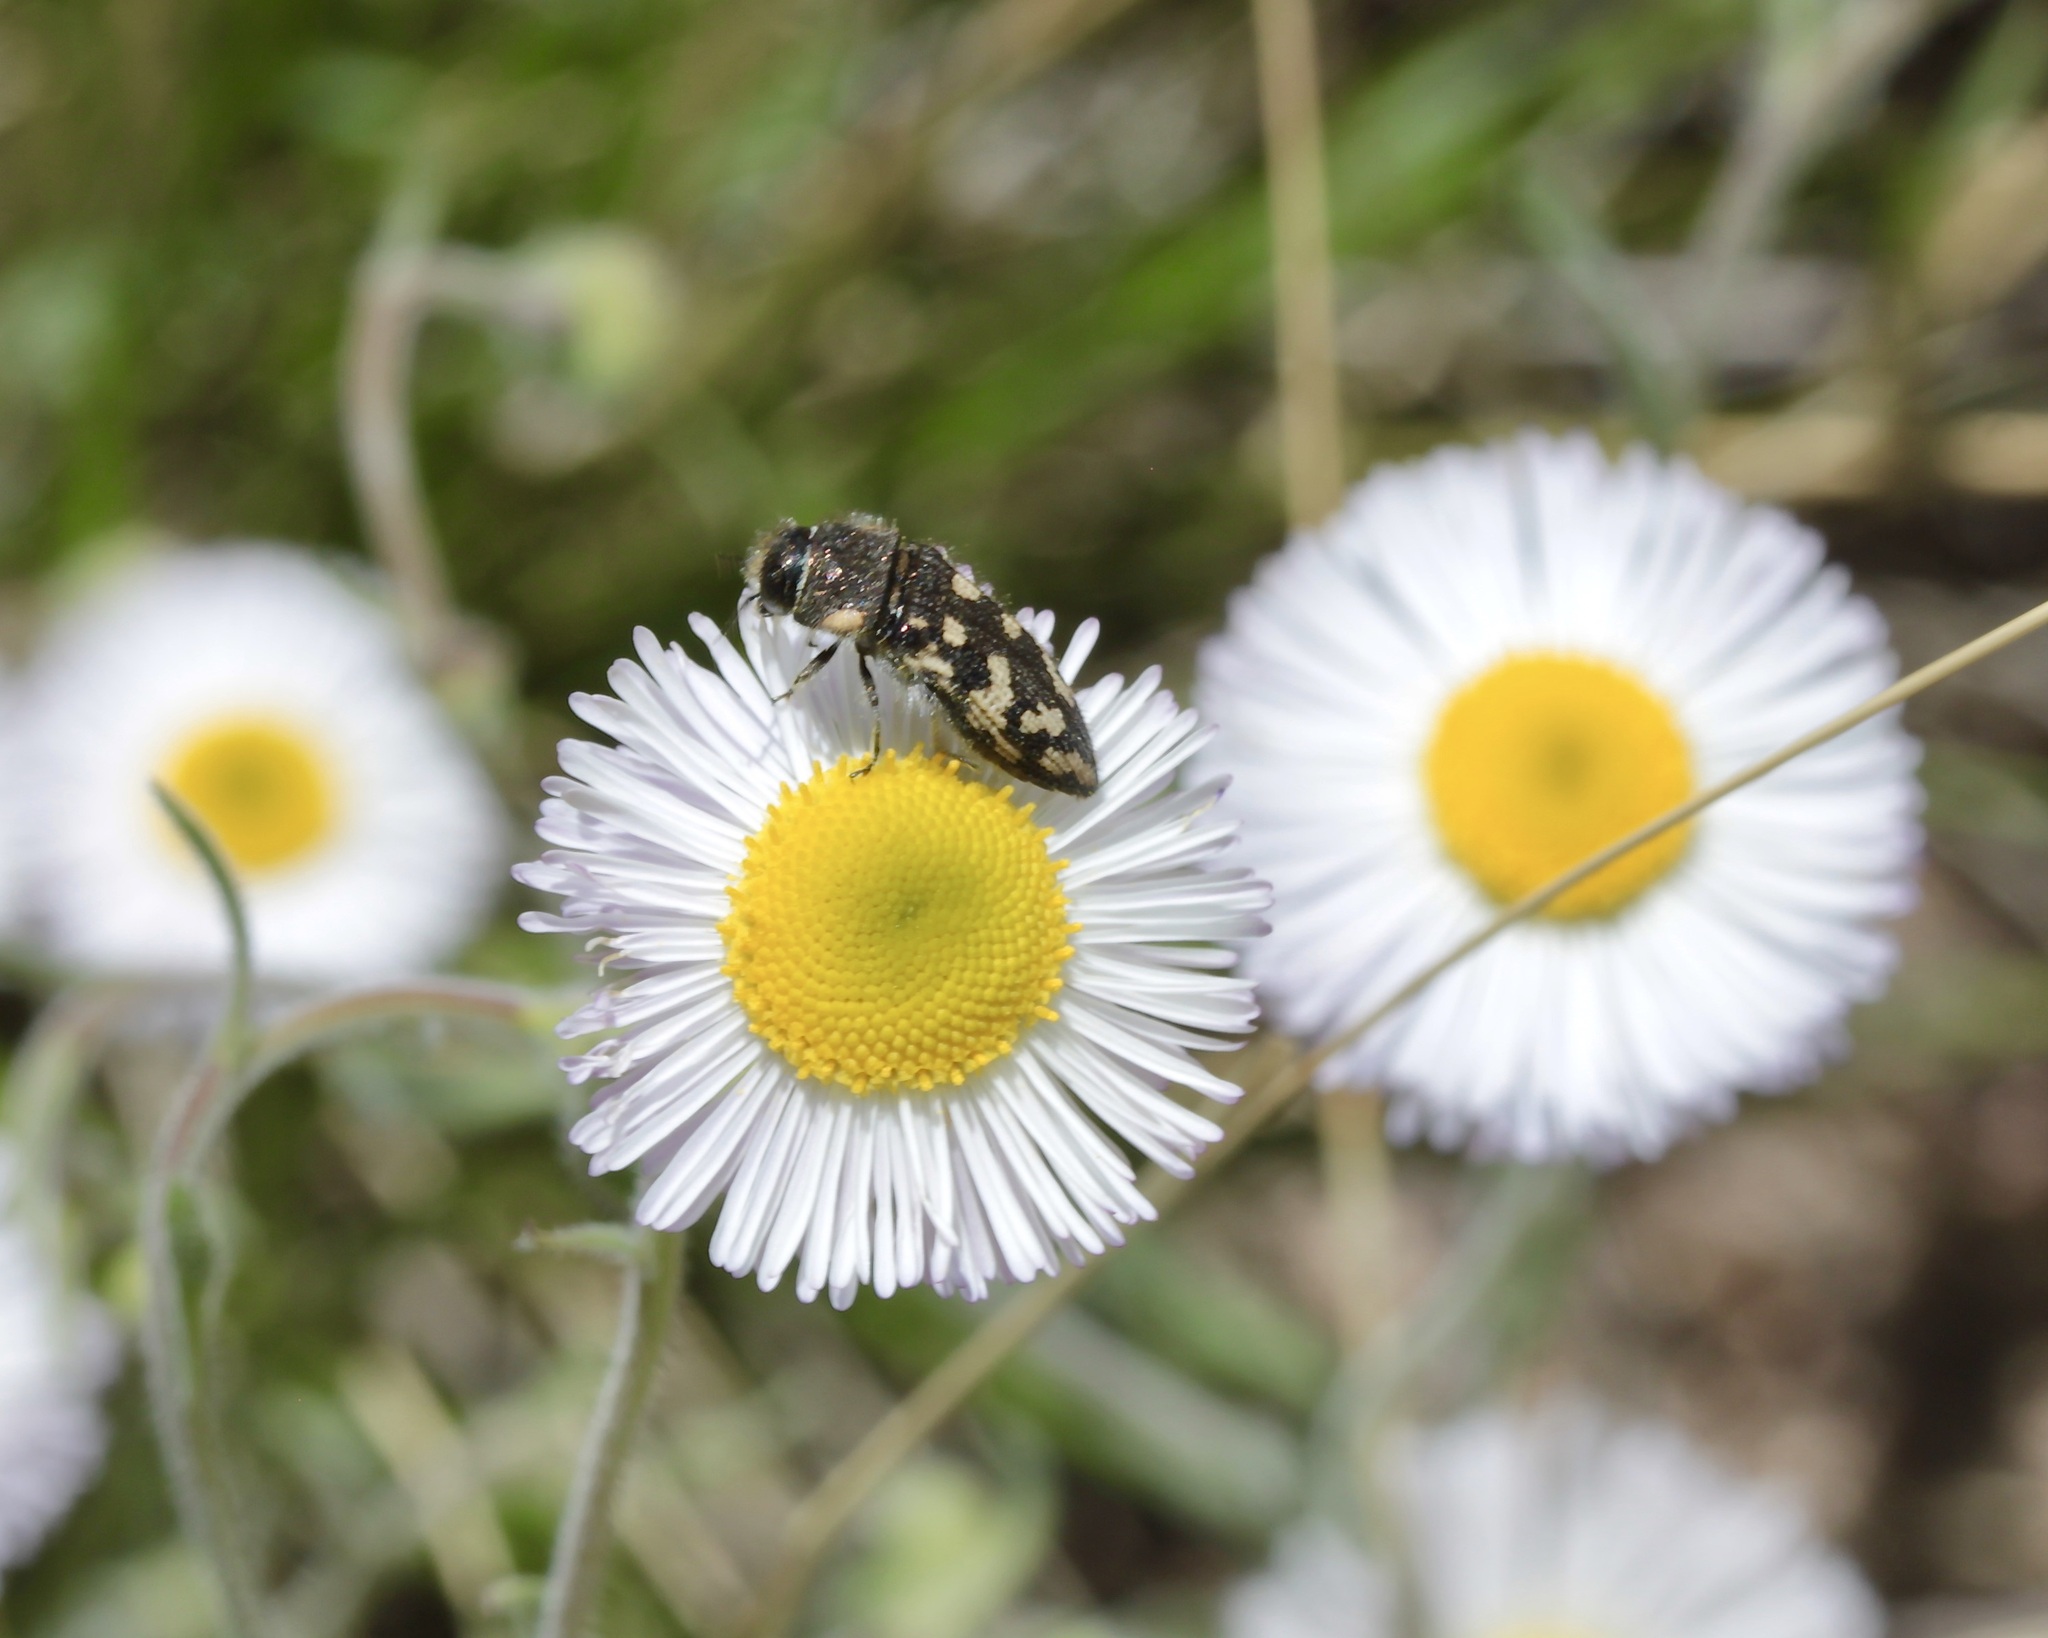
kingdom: Animalia
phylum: Arthropoda
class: Insecta
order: Coleoptera
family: Buprestidae
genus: Acmaeodera
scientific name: Acmaeodera bowditchi
